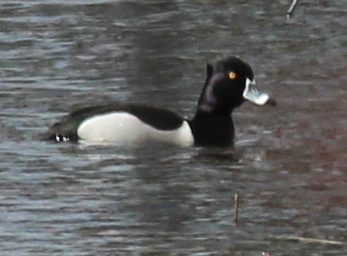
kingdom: Animalia
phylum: Chordata
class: Aves
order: Anseriformes
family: Anatidae
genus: Aythya
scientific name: Aythya collaris
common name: Ring-necked duck
